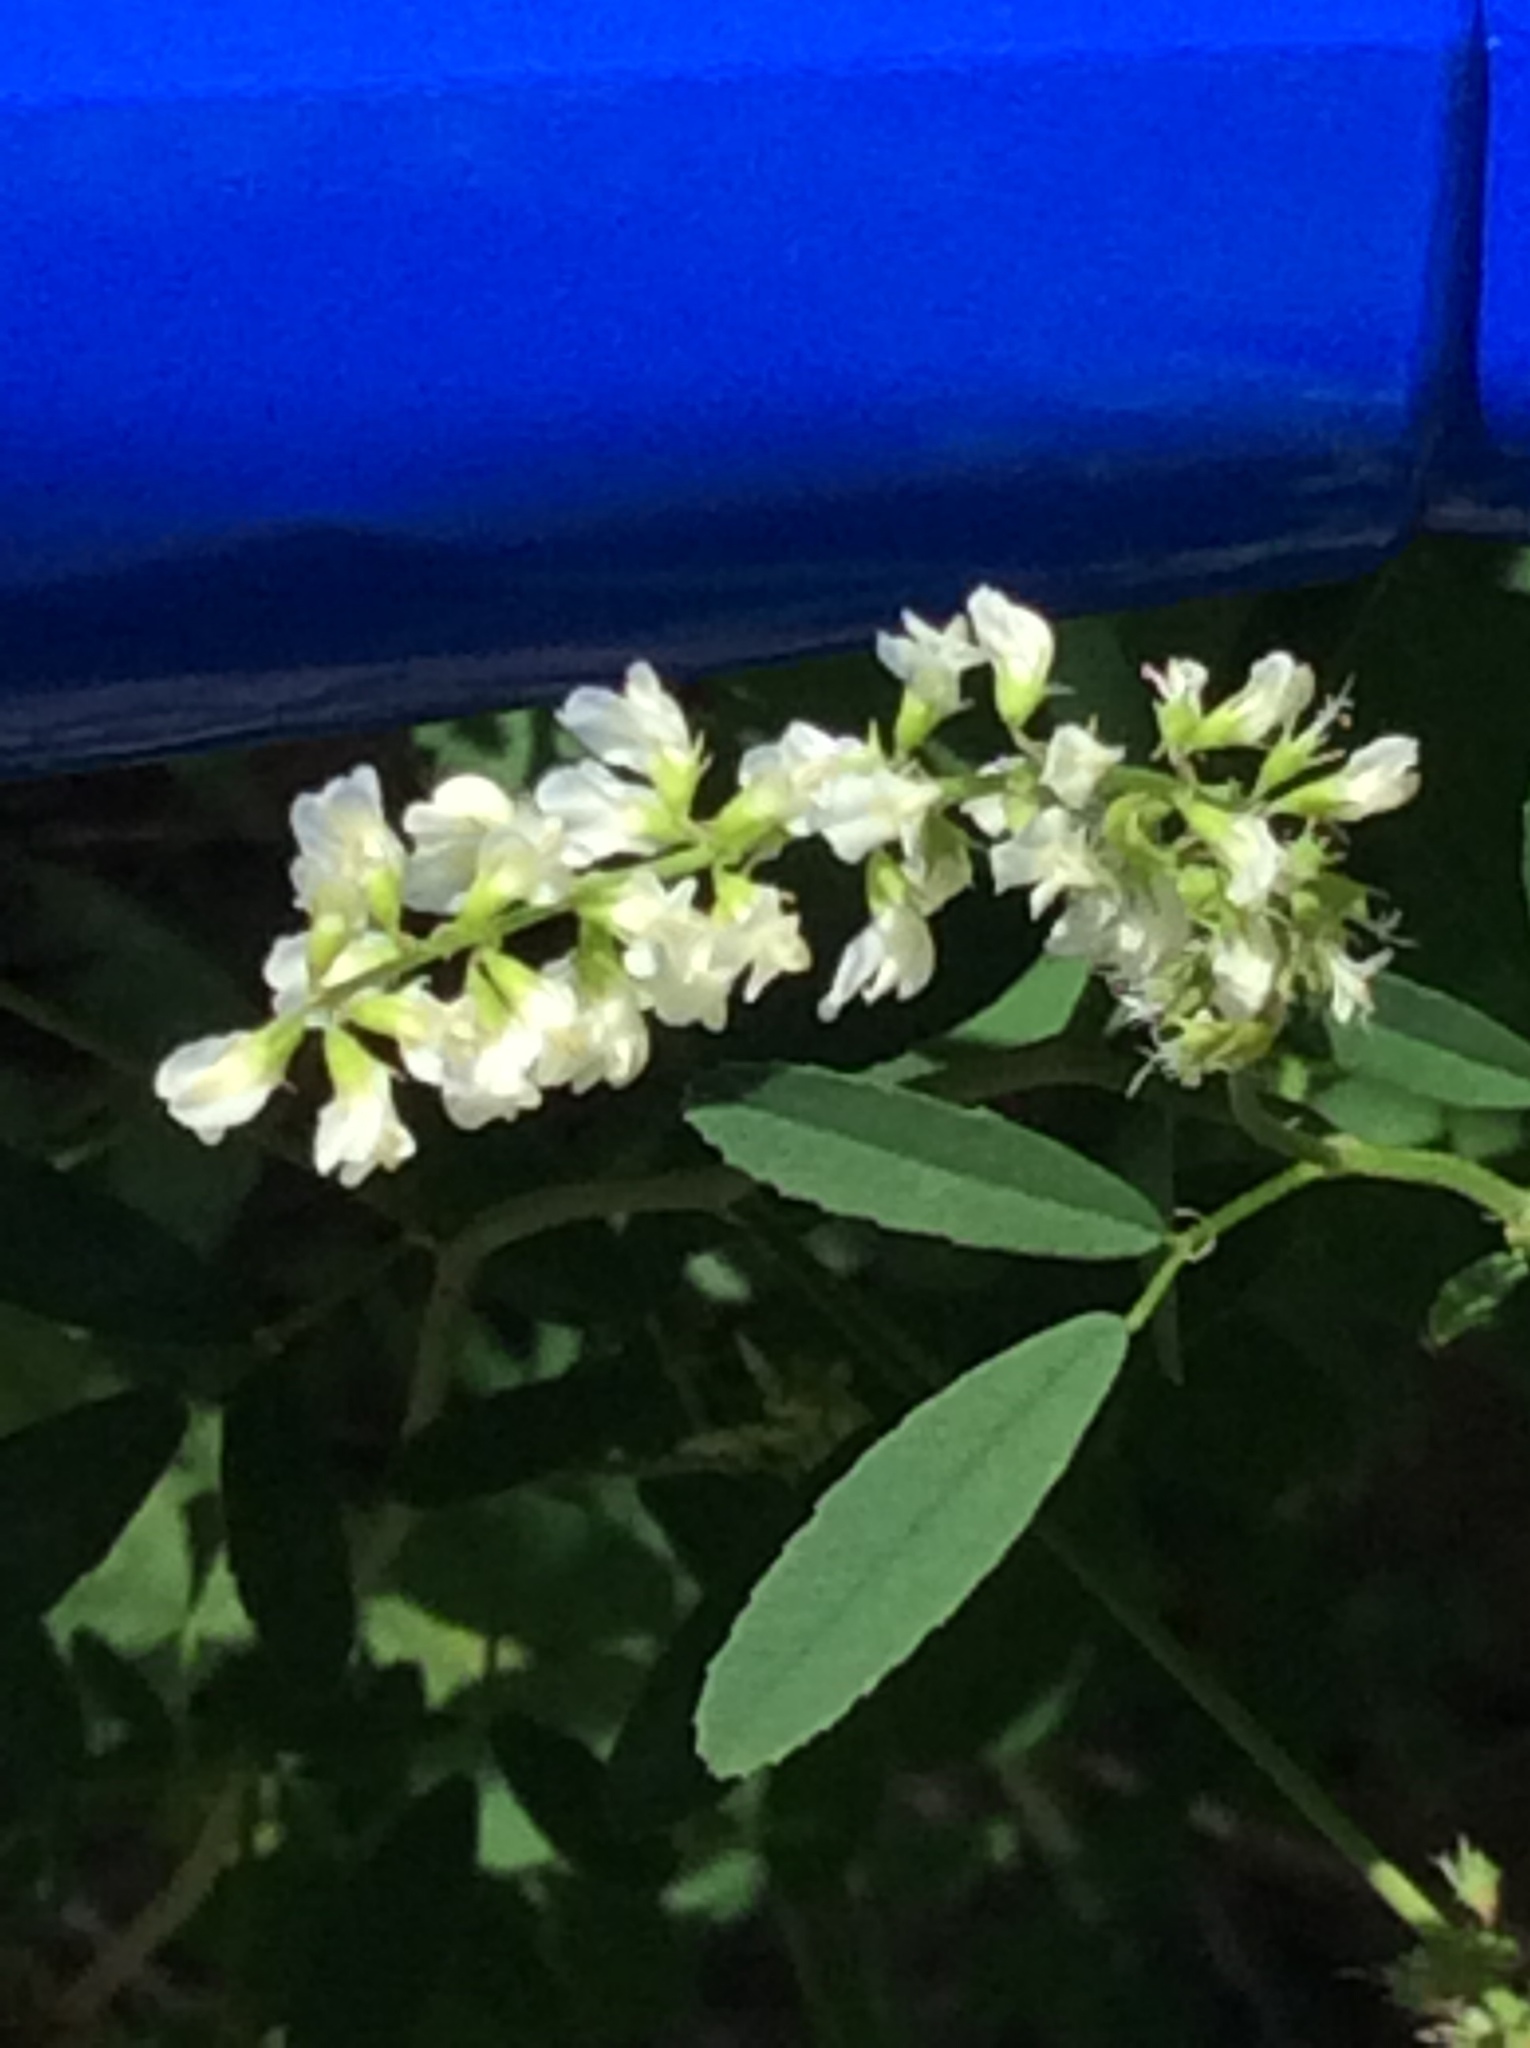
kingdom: Plantae
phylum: Tracheophyta
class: Magnoliopsida
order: Fabales
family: Fabaceae
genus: Melilotus
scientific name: Melilotus albus
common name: White melilot
